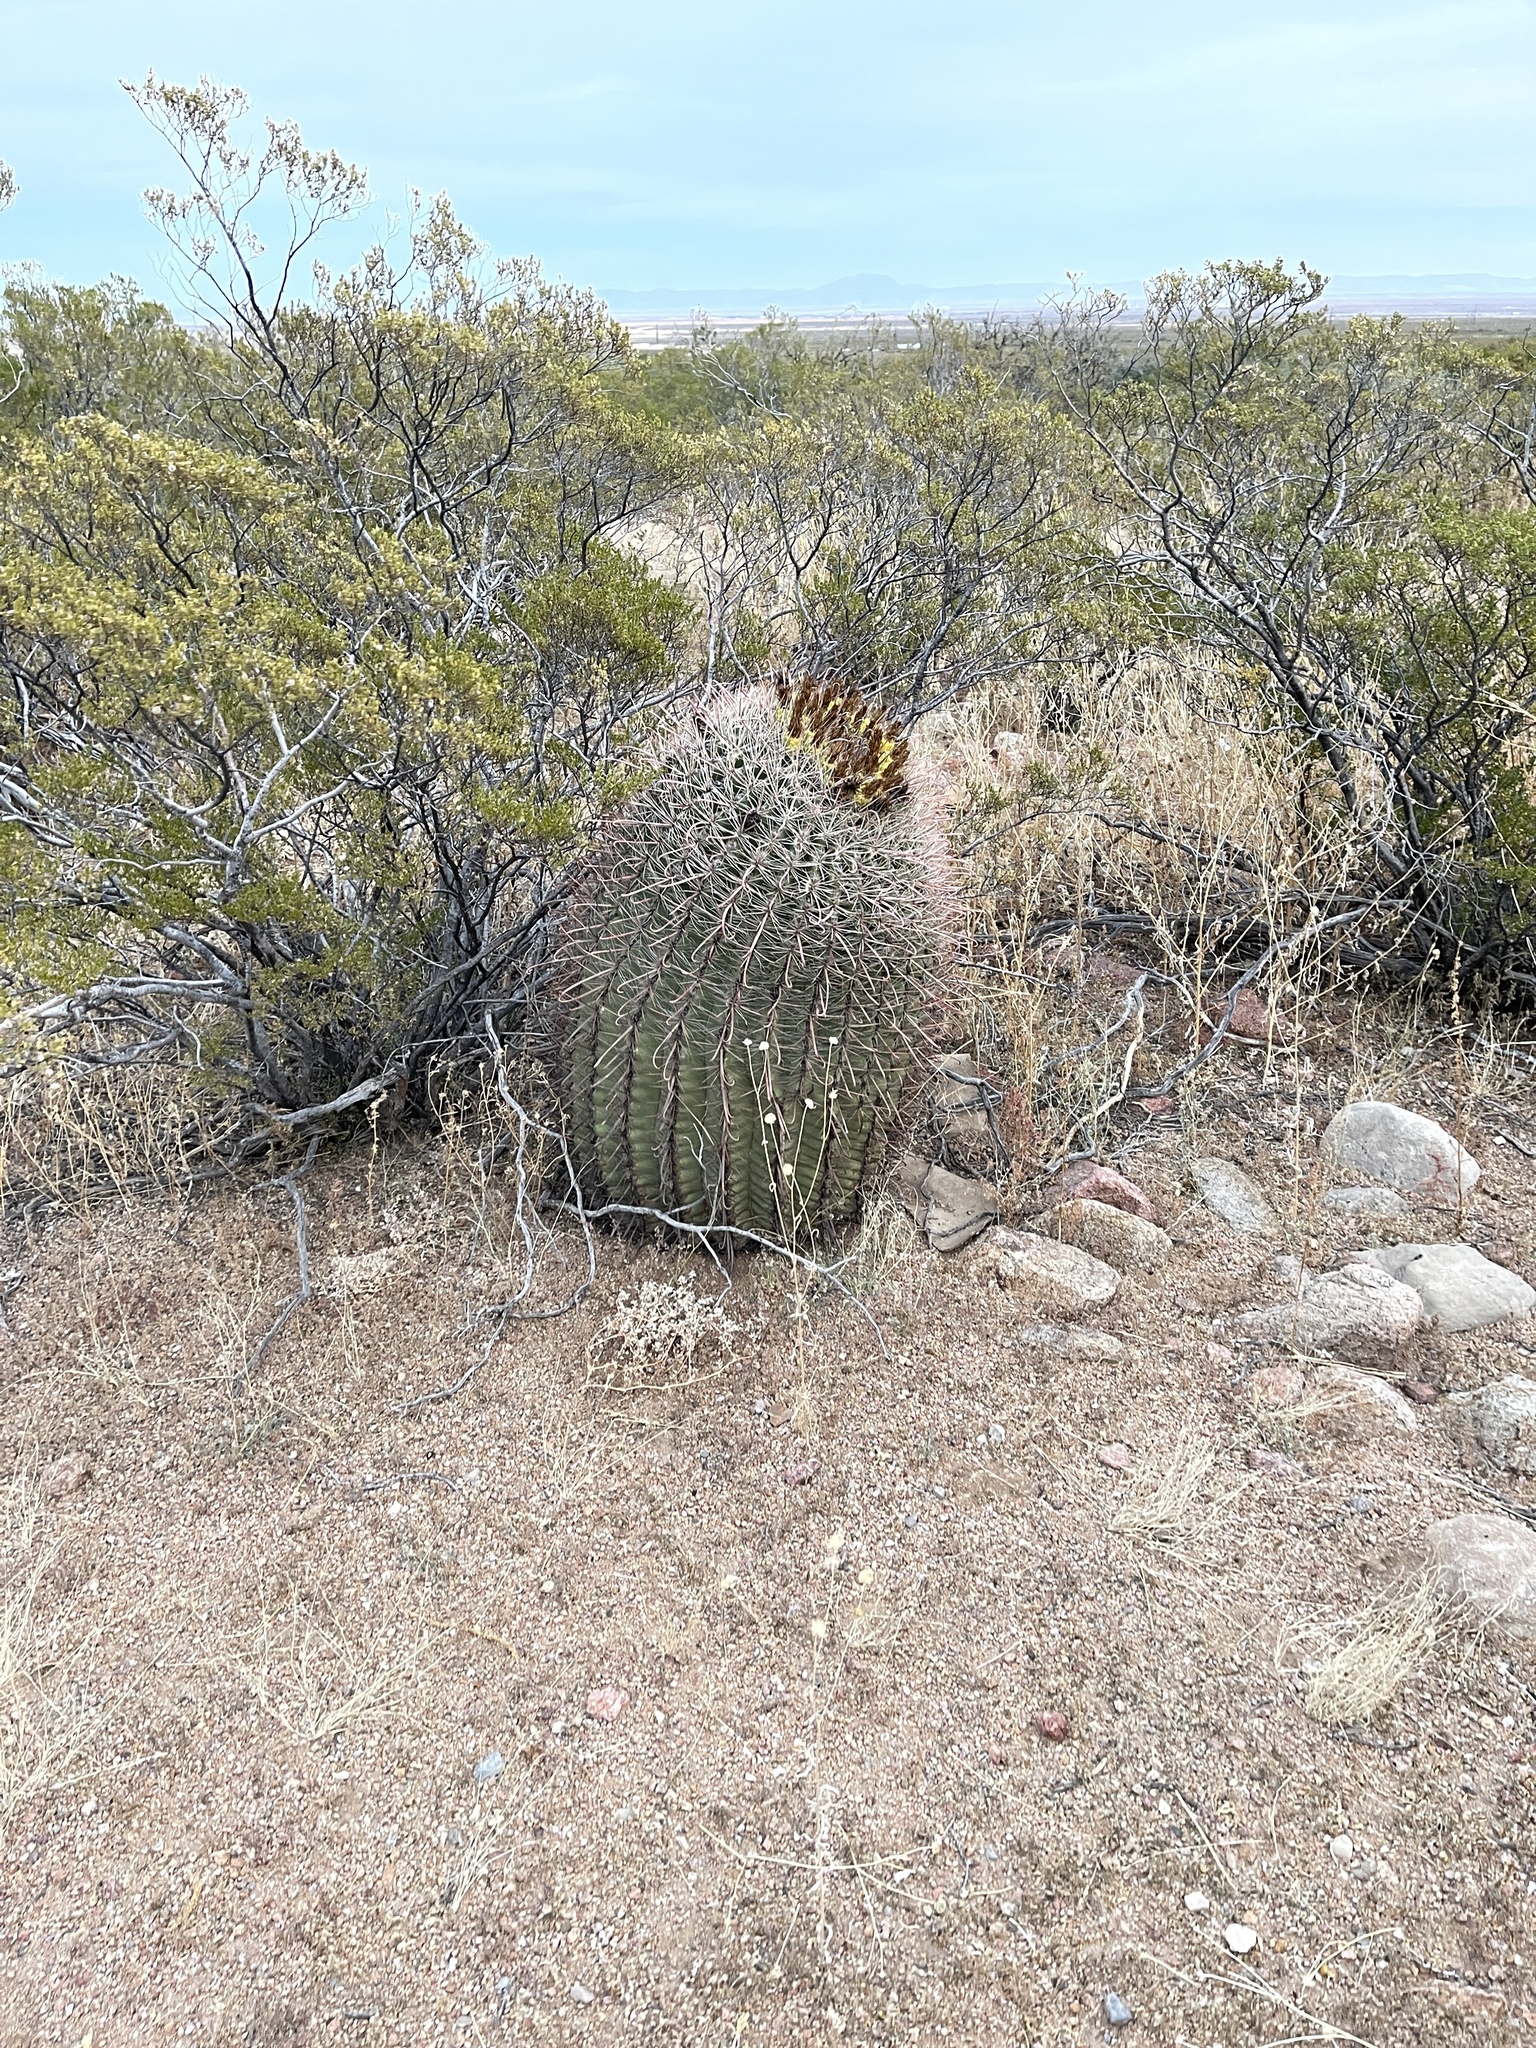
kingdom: Plantae
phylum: Tracheophyta
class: Magnoliopsida
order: Caryophyllales
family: Cactaceae
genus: Ferocactus
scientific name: Ferocactus wislizeni
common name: Candy barrel cactus
